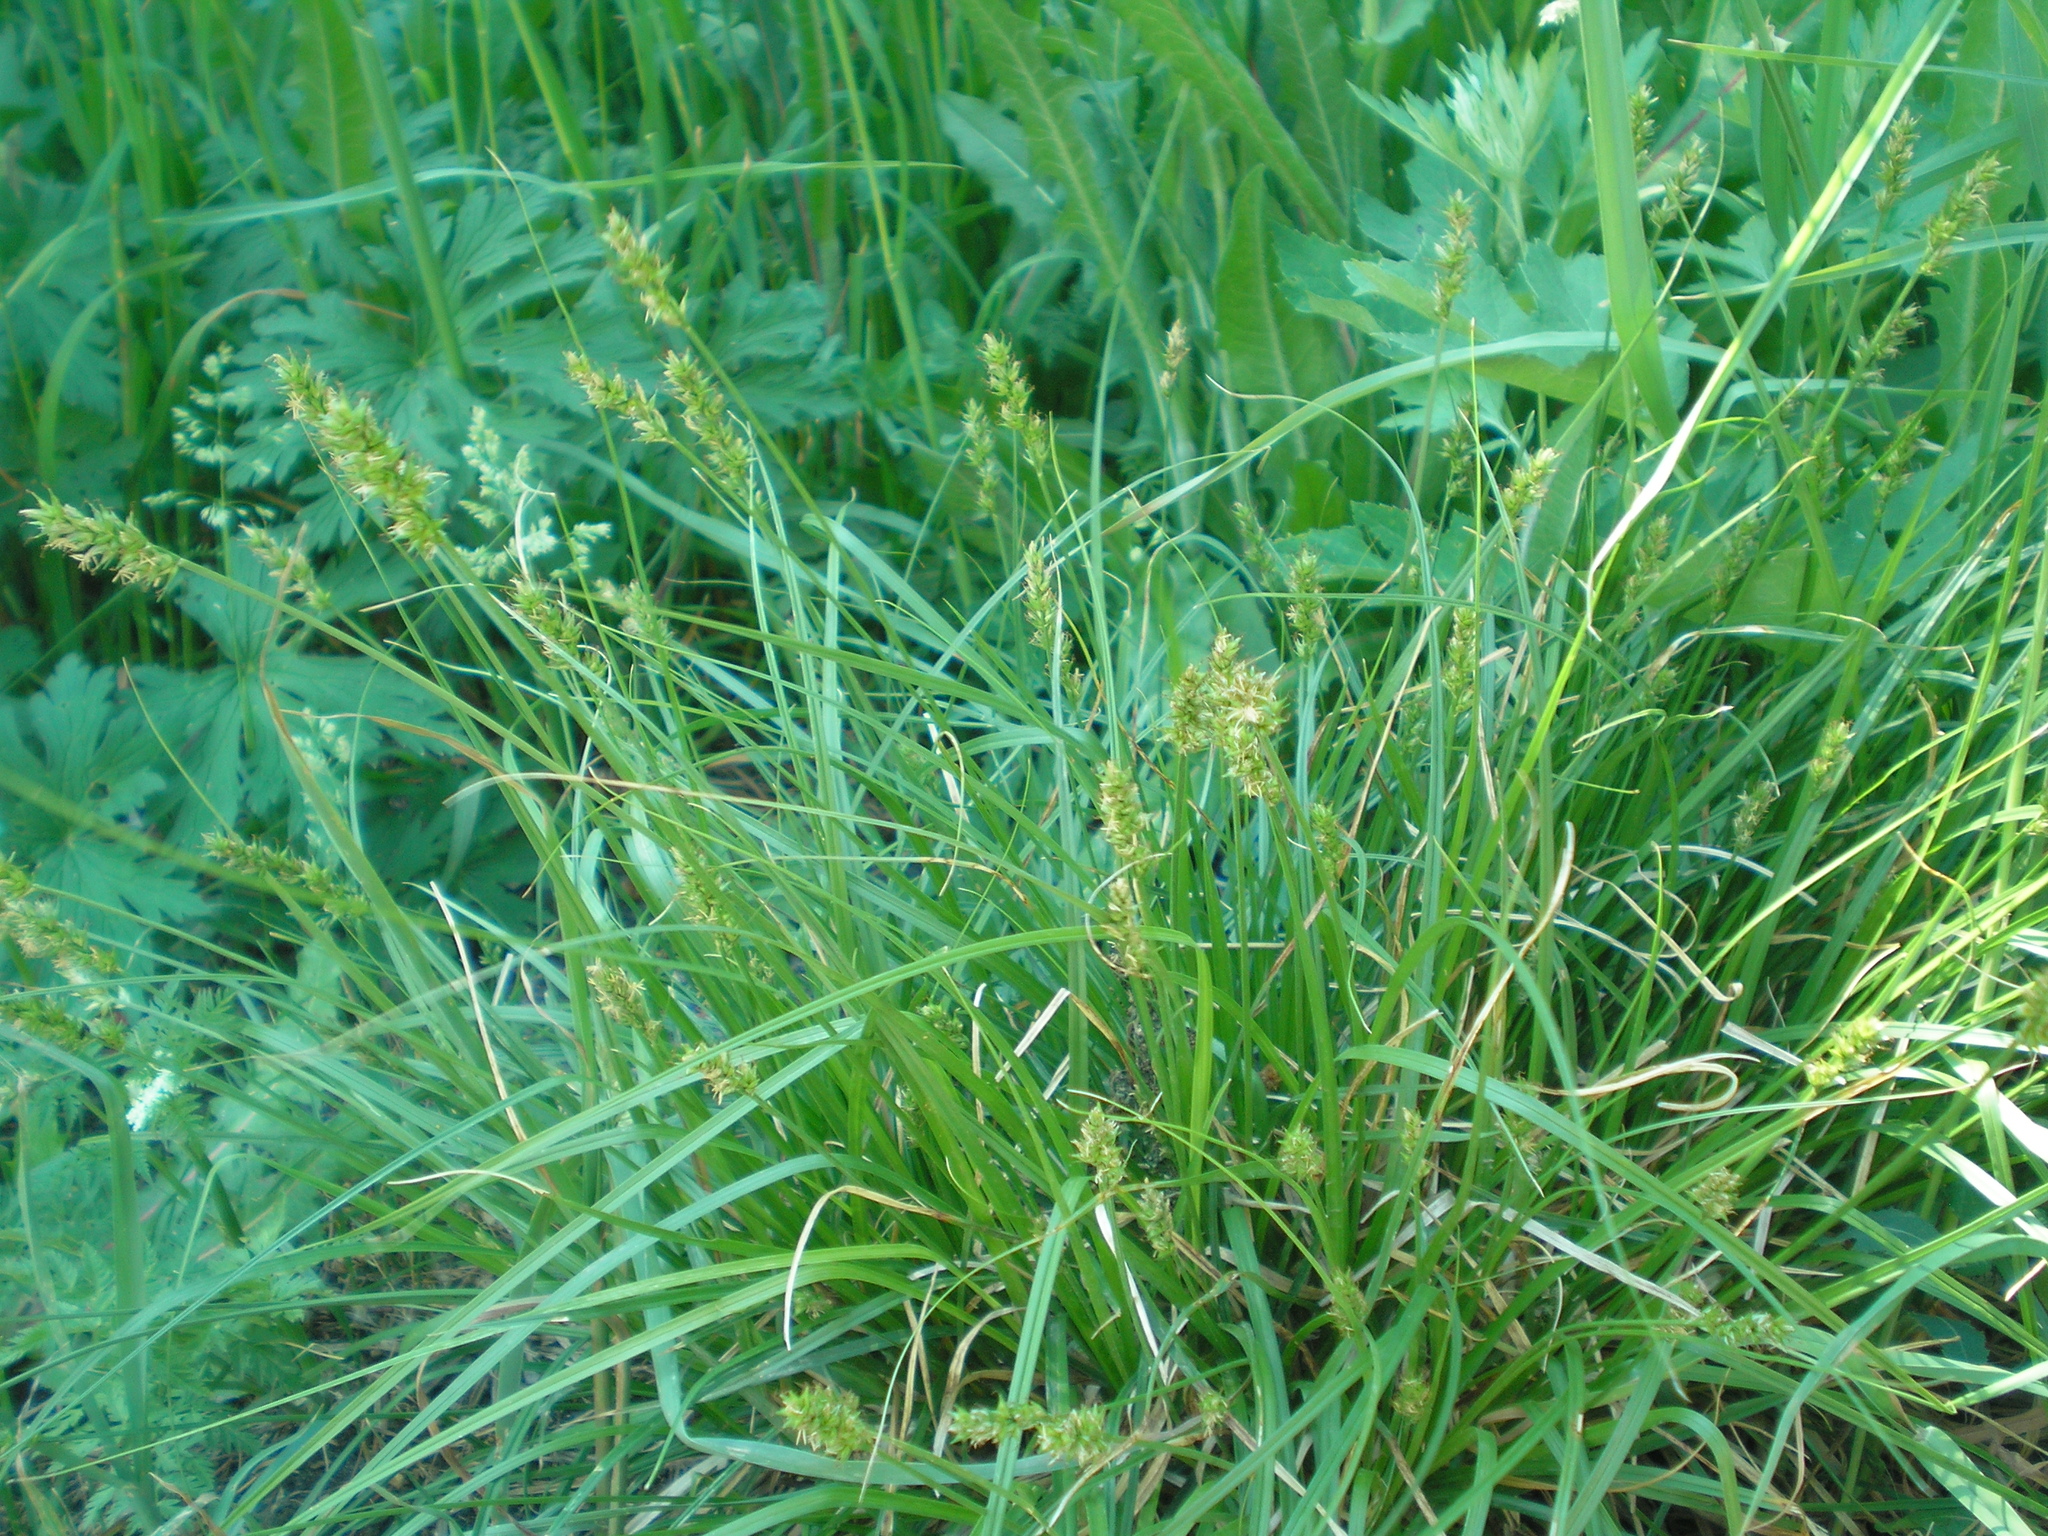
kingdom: Plantae
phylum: Tracheophyta
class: Liliopsida
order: Poales
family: Cyperaceae
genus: Carex
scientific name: Carex spicata
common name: Spiked sedge
